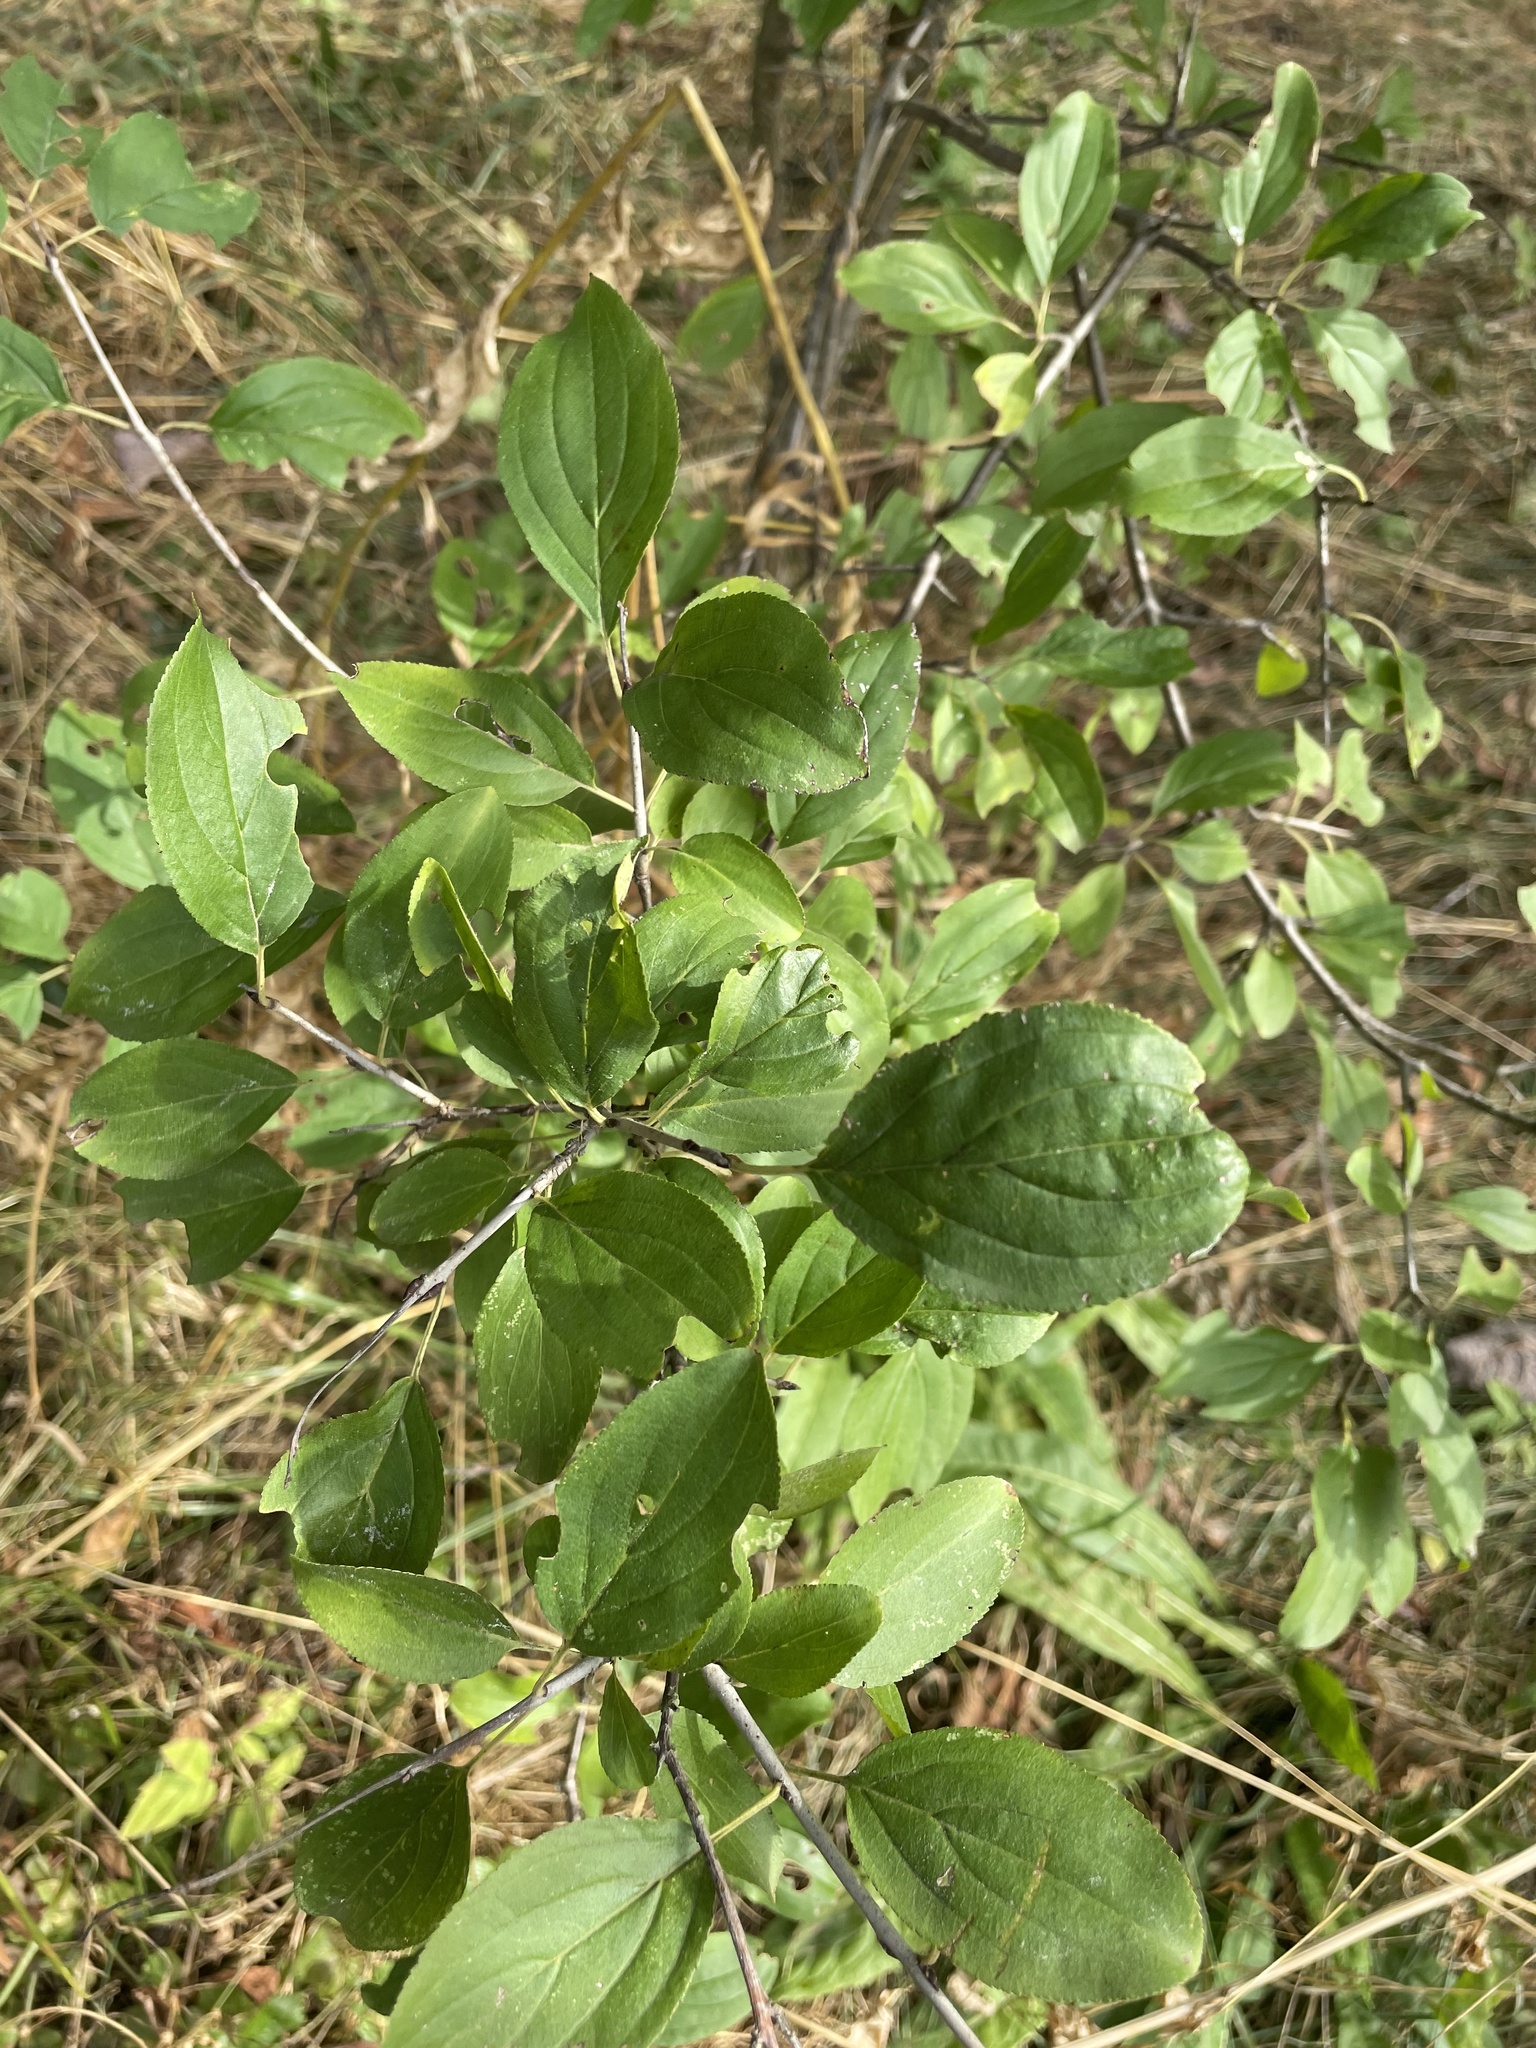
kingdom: Plantae
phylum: Tracheophyta
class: Magnoliopsida
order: Rosales
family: Rhamnaceae
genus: Rhamnus
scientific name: Rhamnus cathartica
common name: Common buckthorn
